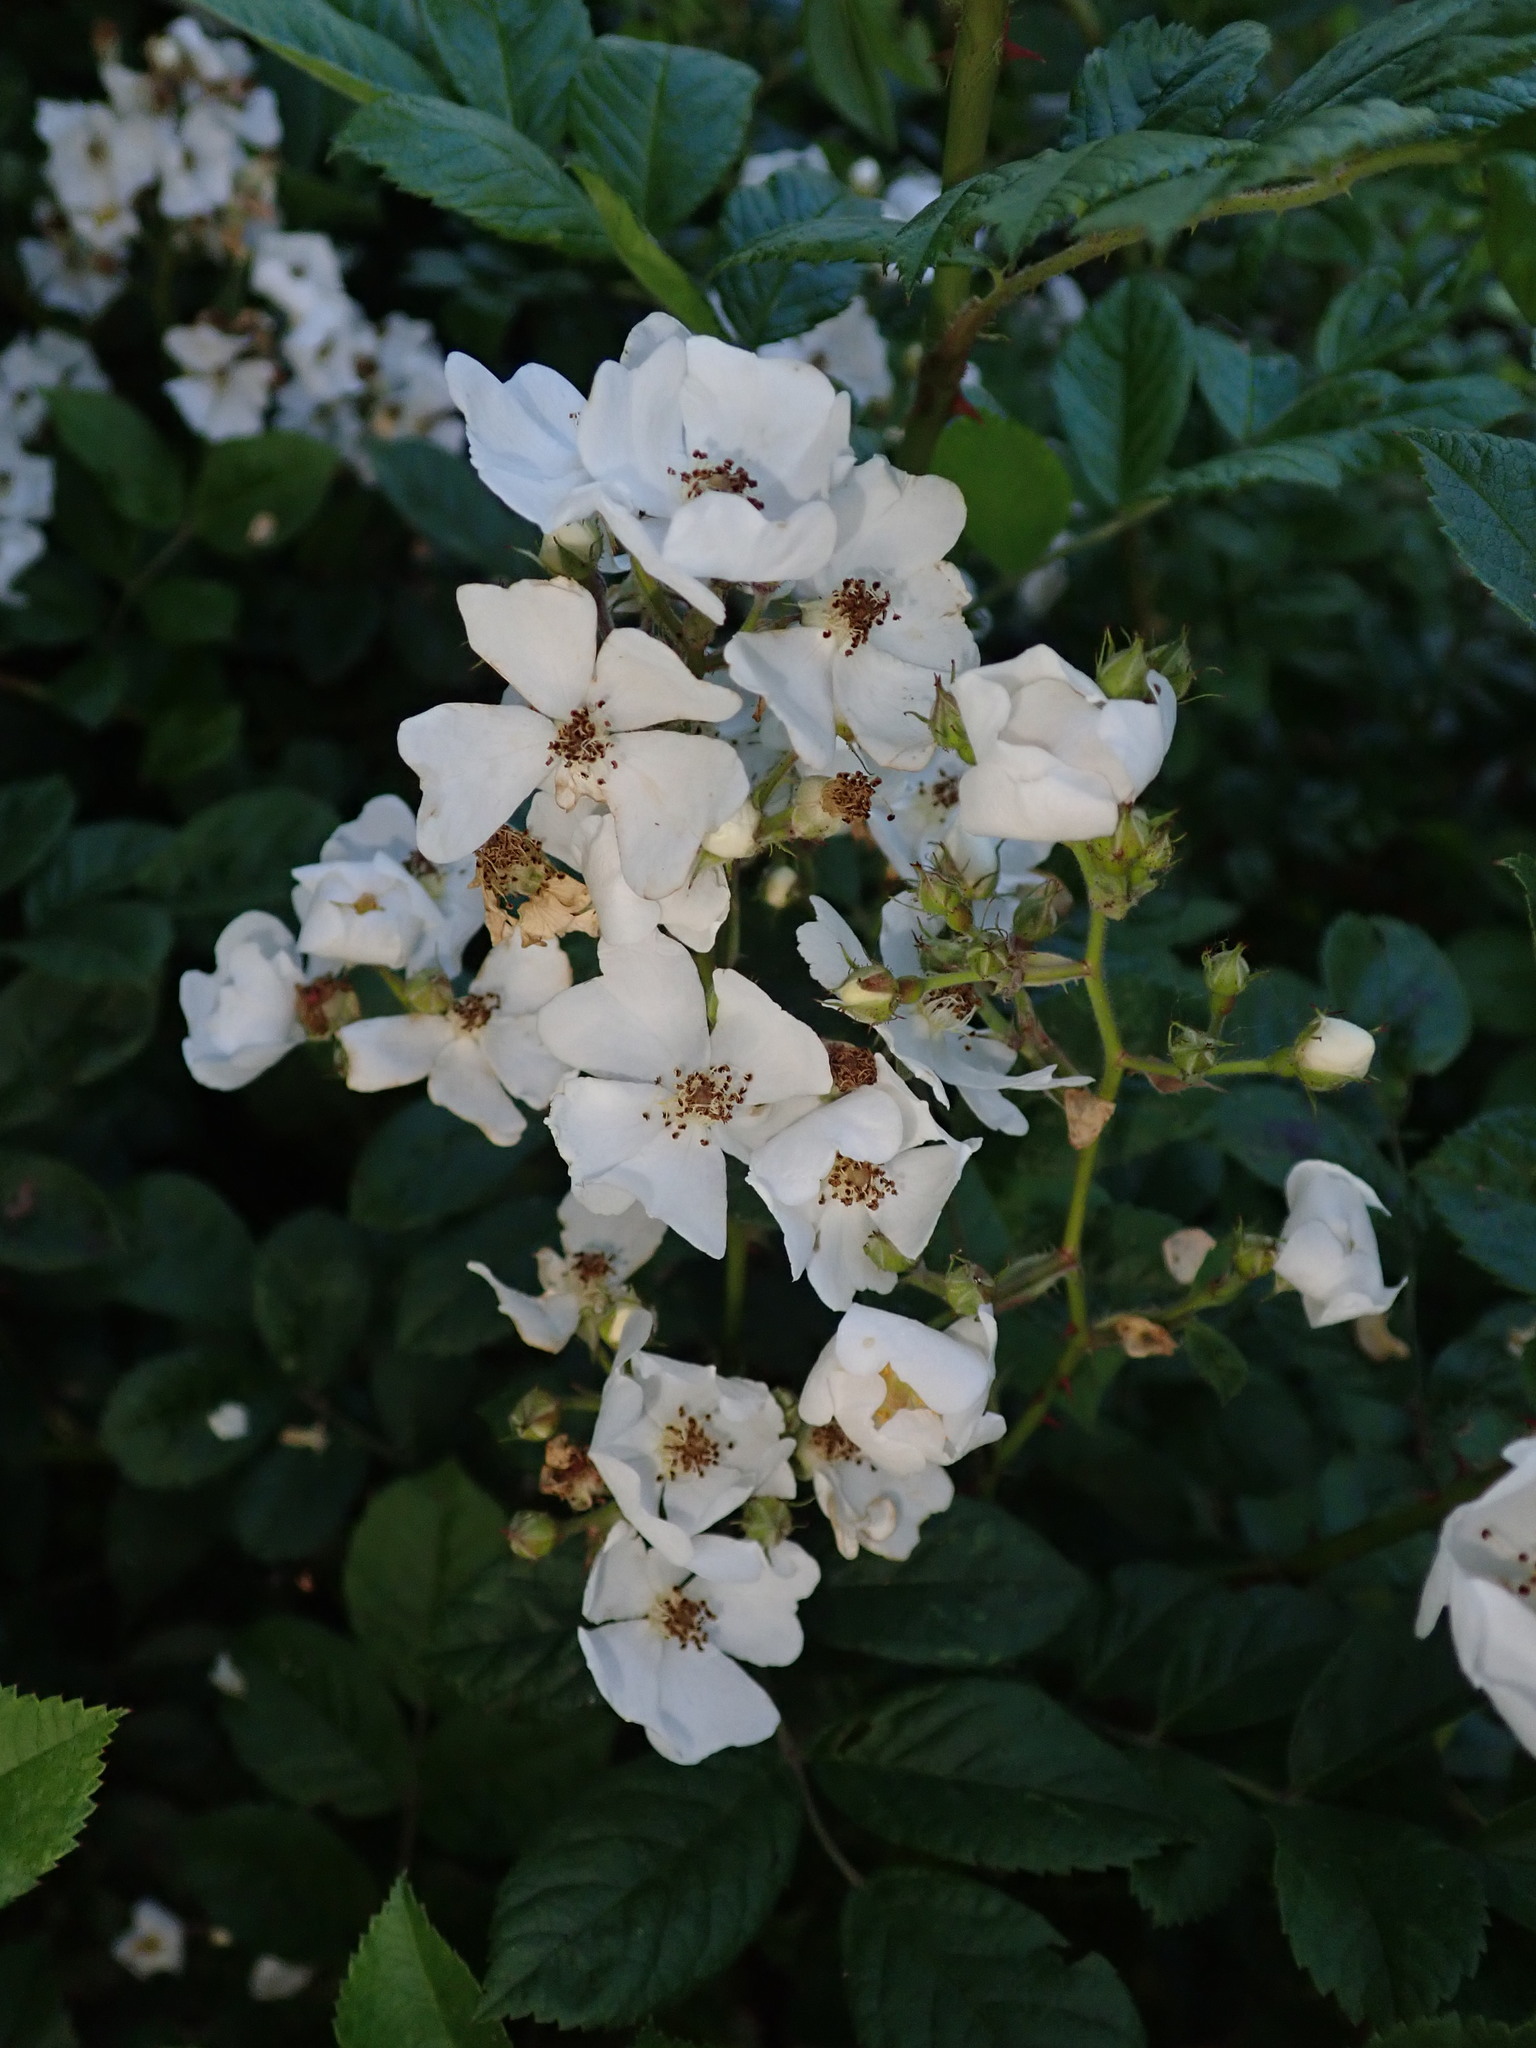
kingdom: Plantae
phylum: Tracheophyta
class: Magnoliopsida
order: Rosales
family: Rosaceae
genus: Rosa
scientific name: Rosa multiflora
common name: Multiflora rose
